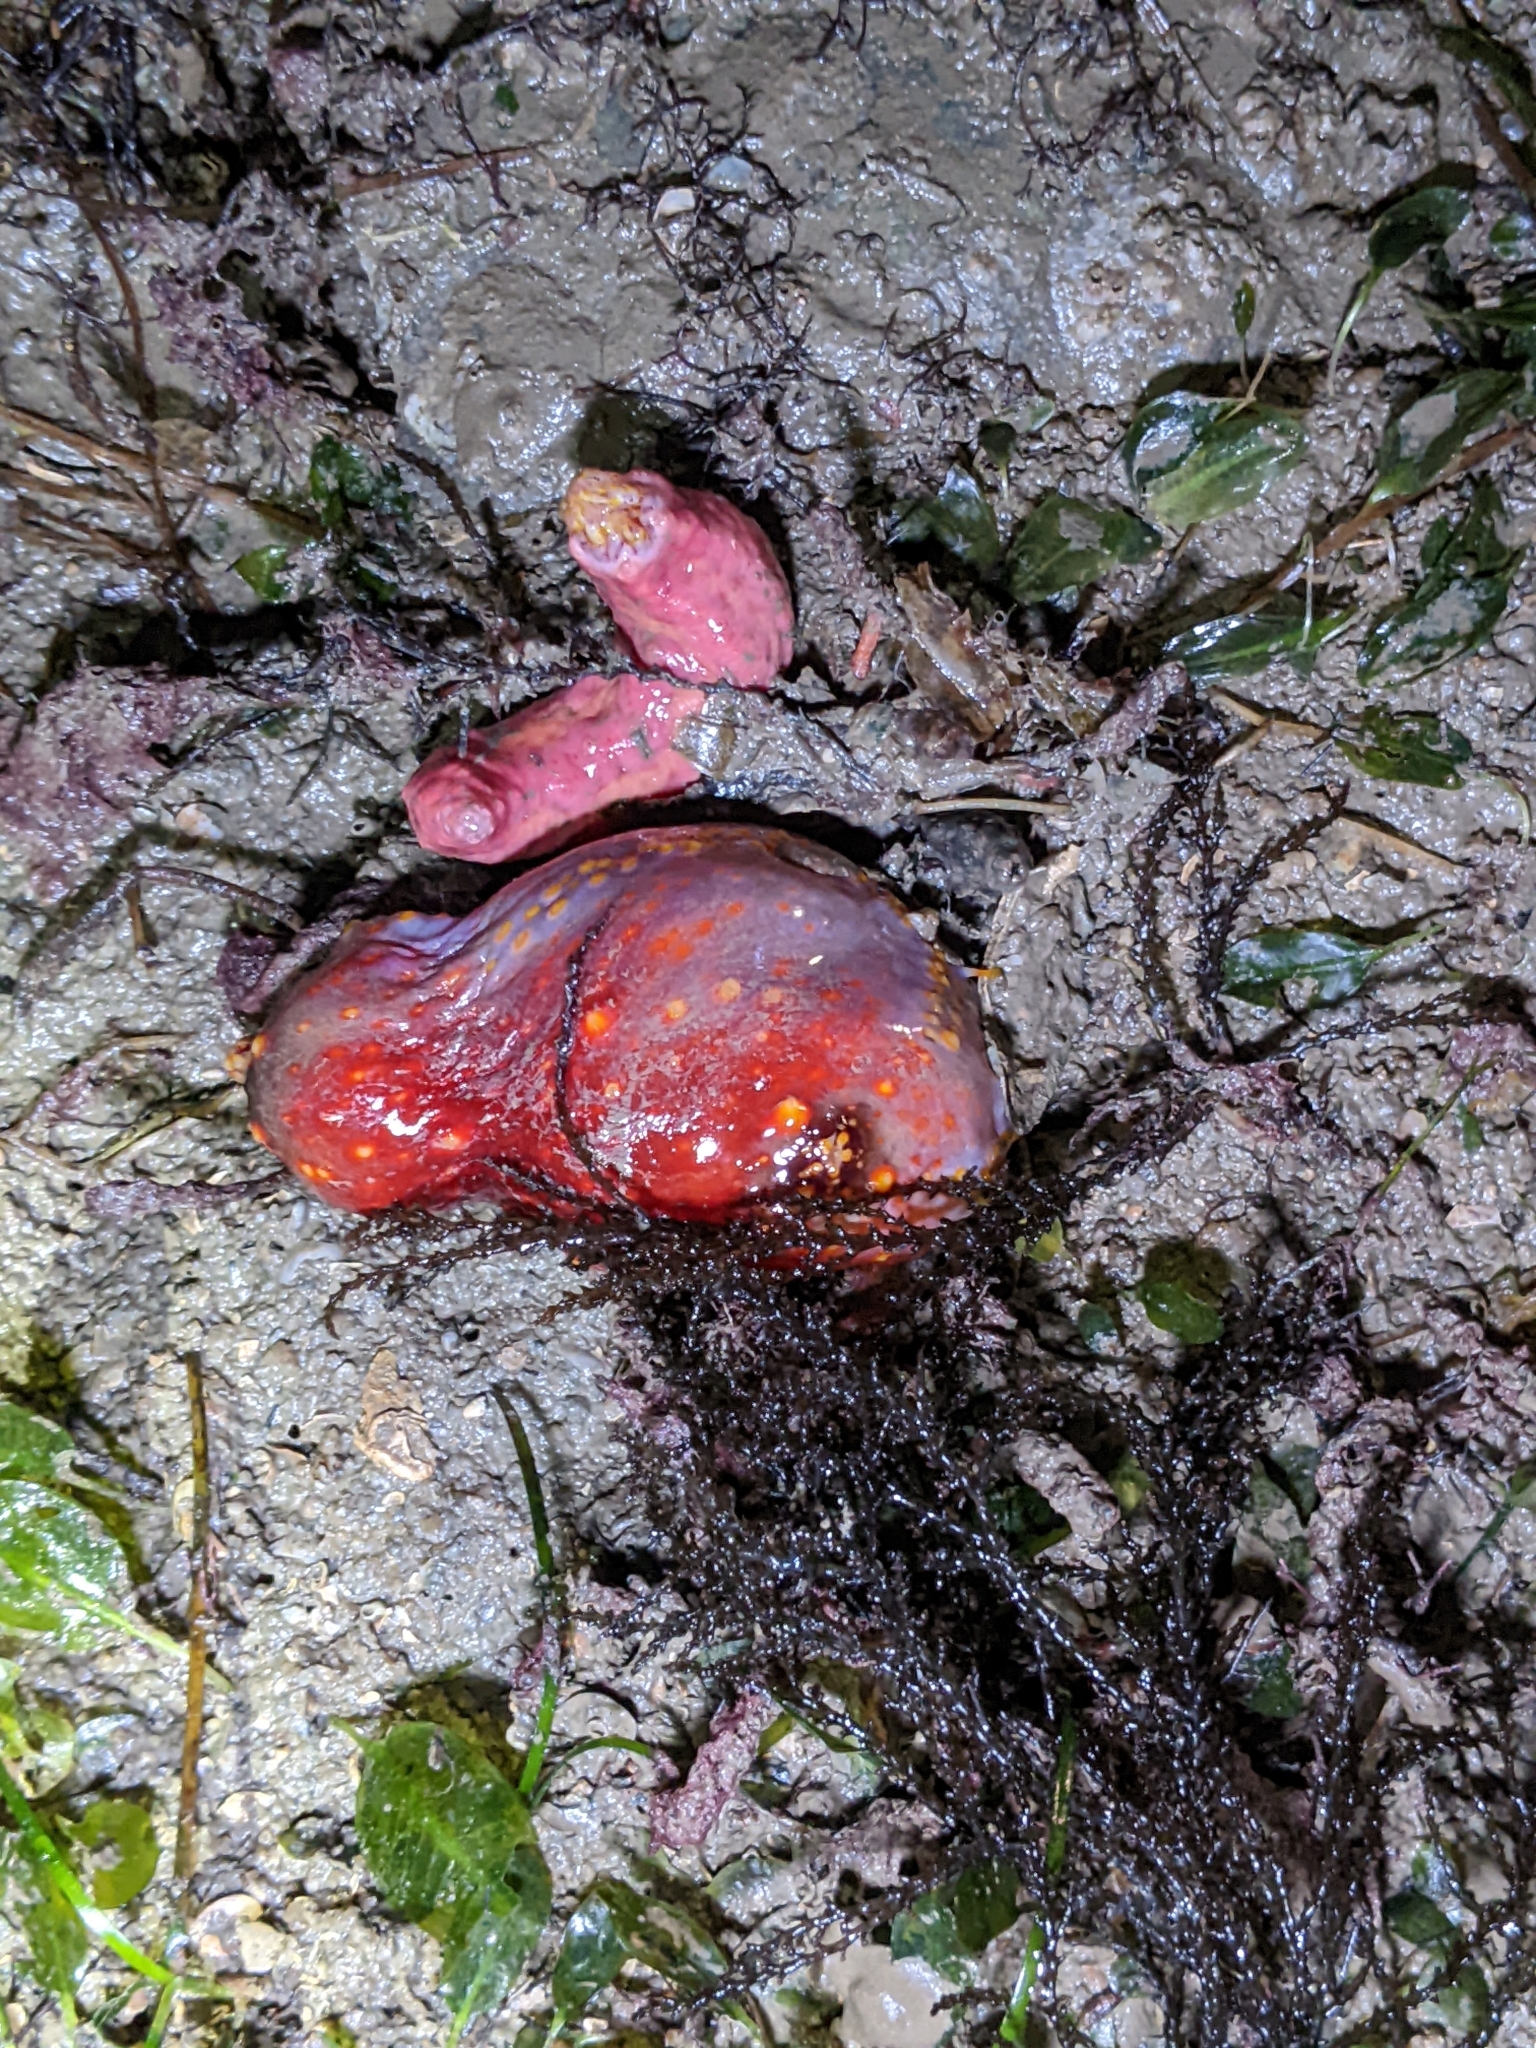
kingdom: Animalia
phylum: Echinodermata
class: Holothuroidea
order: Dendrochirotida
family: Cucumariidae
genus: Pseudocolochirus
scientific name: Pseudocolochirus violaceus
